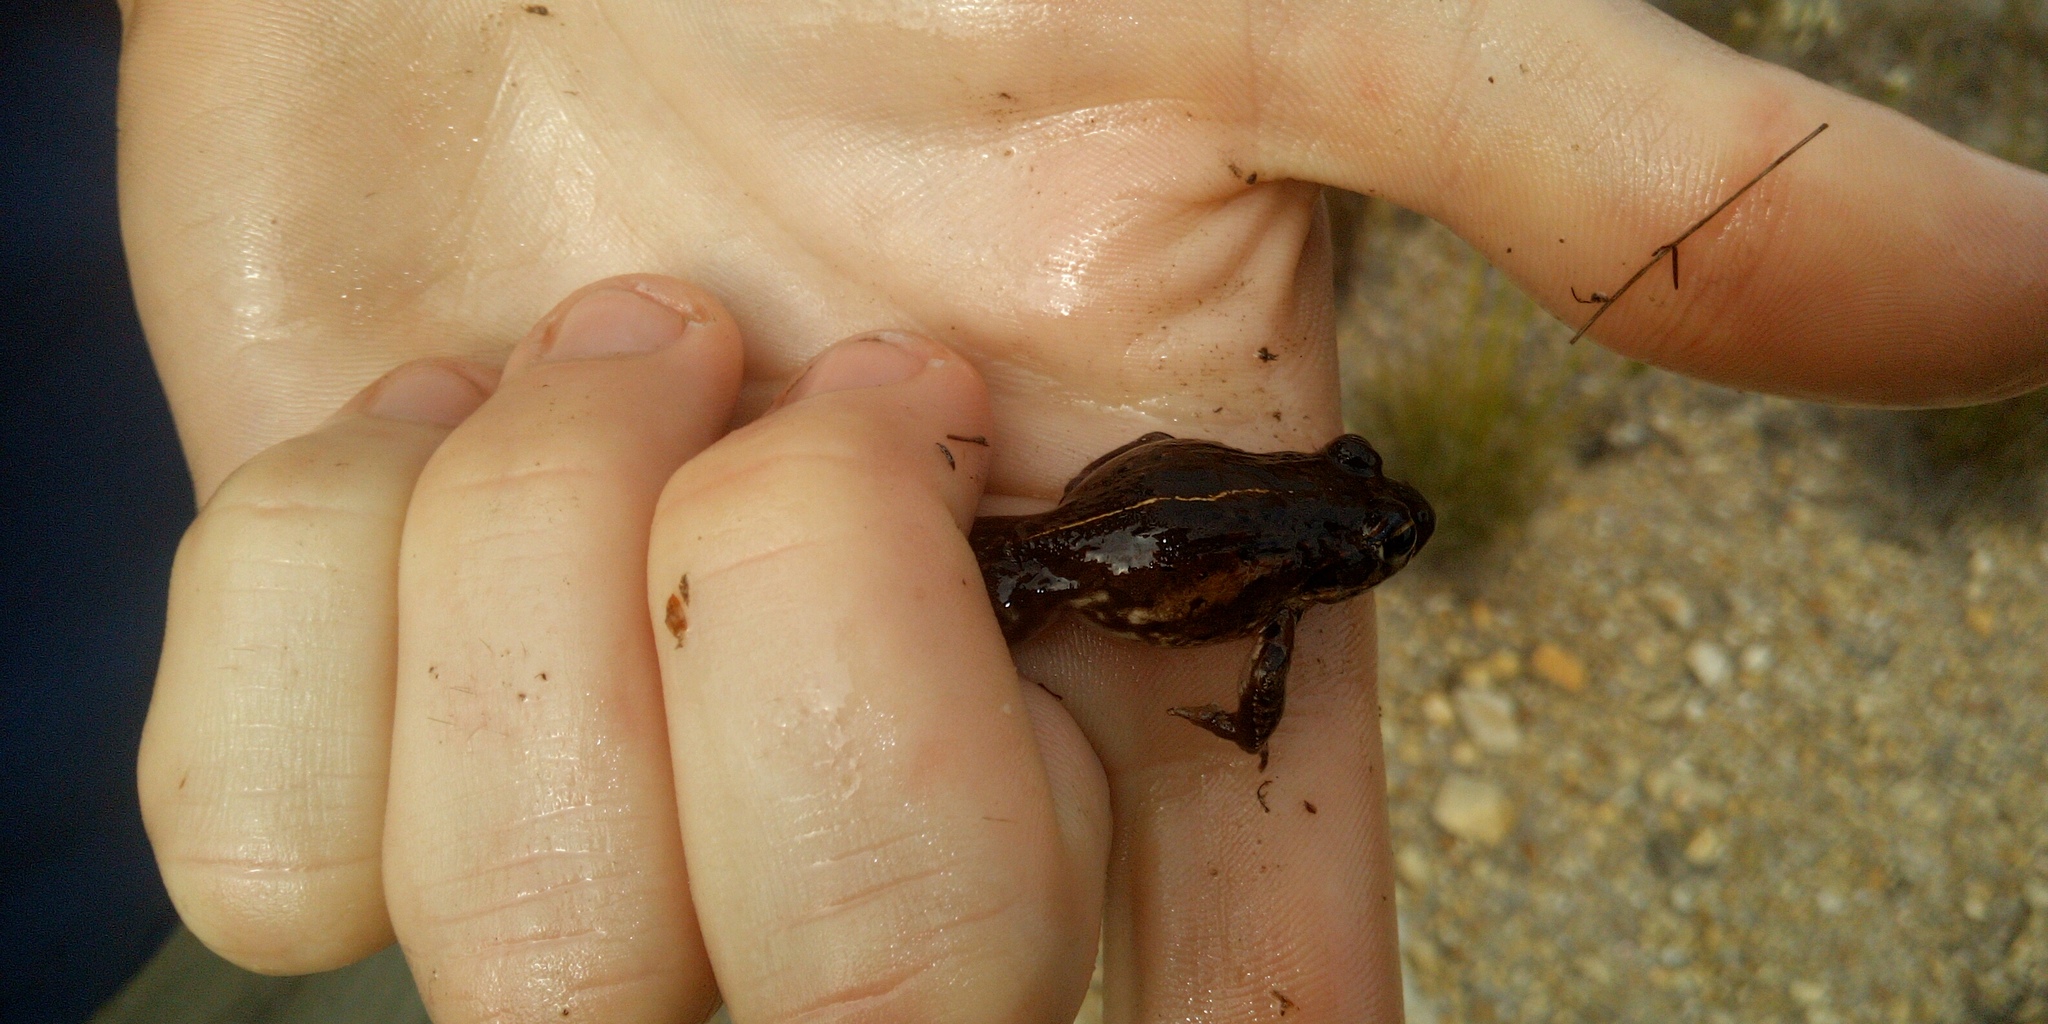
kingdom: Animalia
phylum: Chordata
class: Amphibia
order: Anura
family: Pyxicephalidae
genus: Strongylopus
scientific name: Strongylopus grayii
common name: Gray's stream frog
